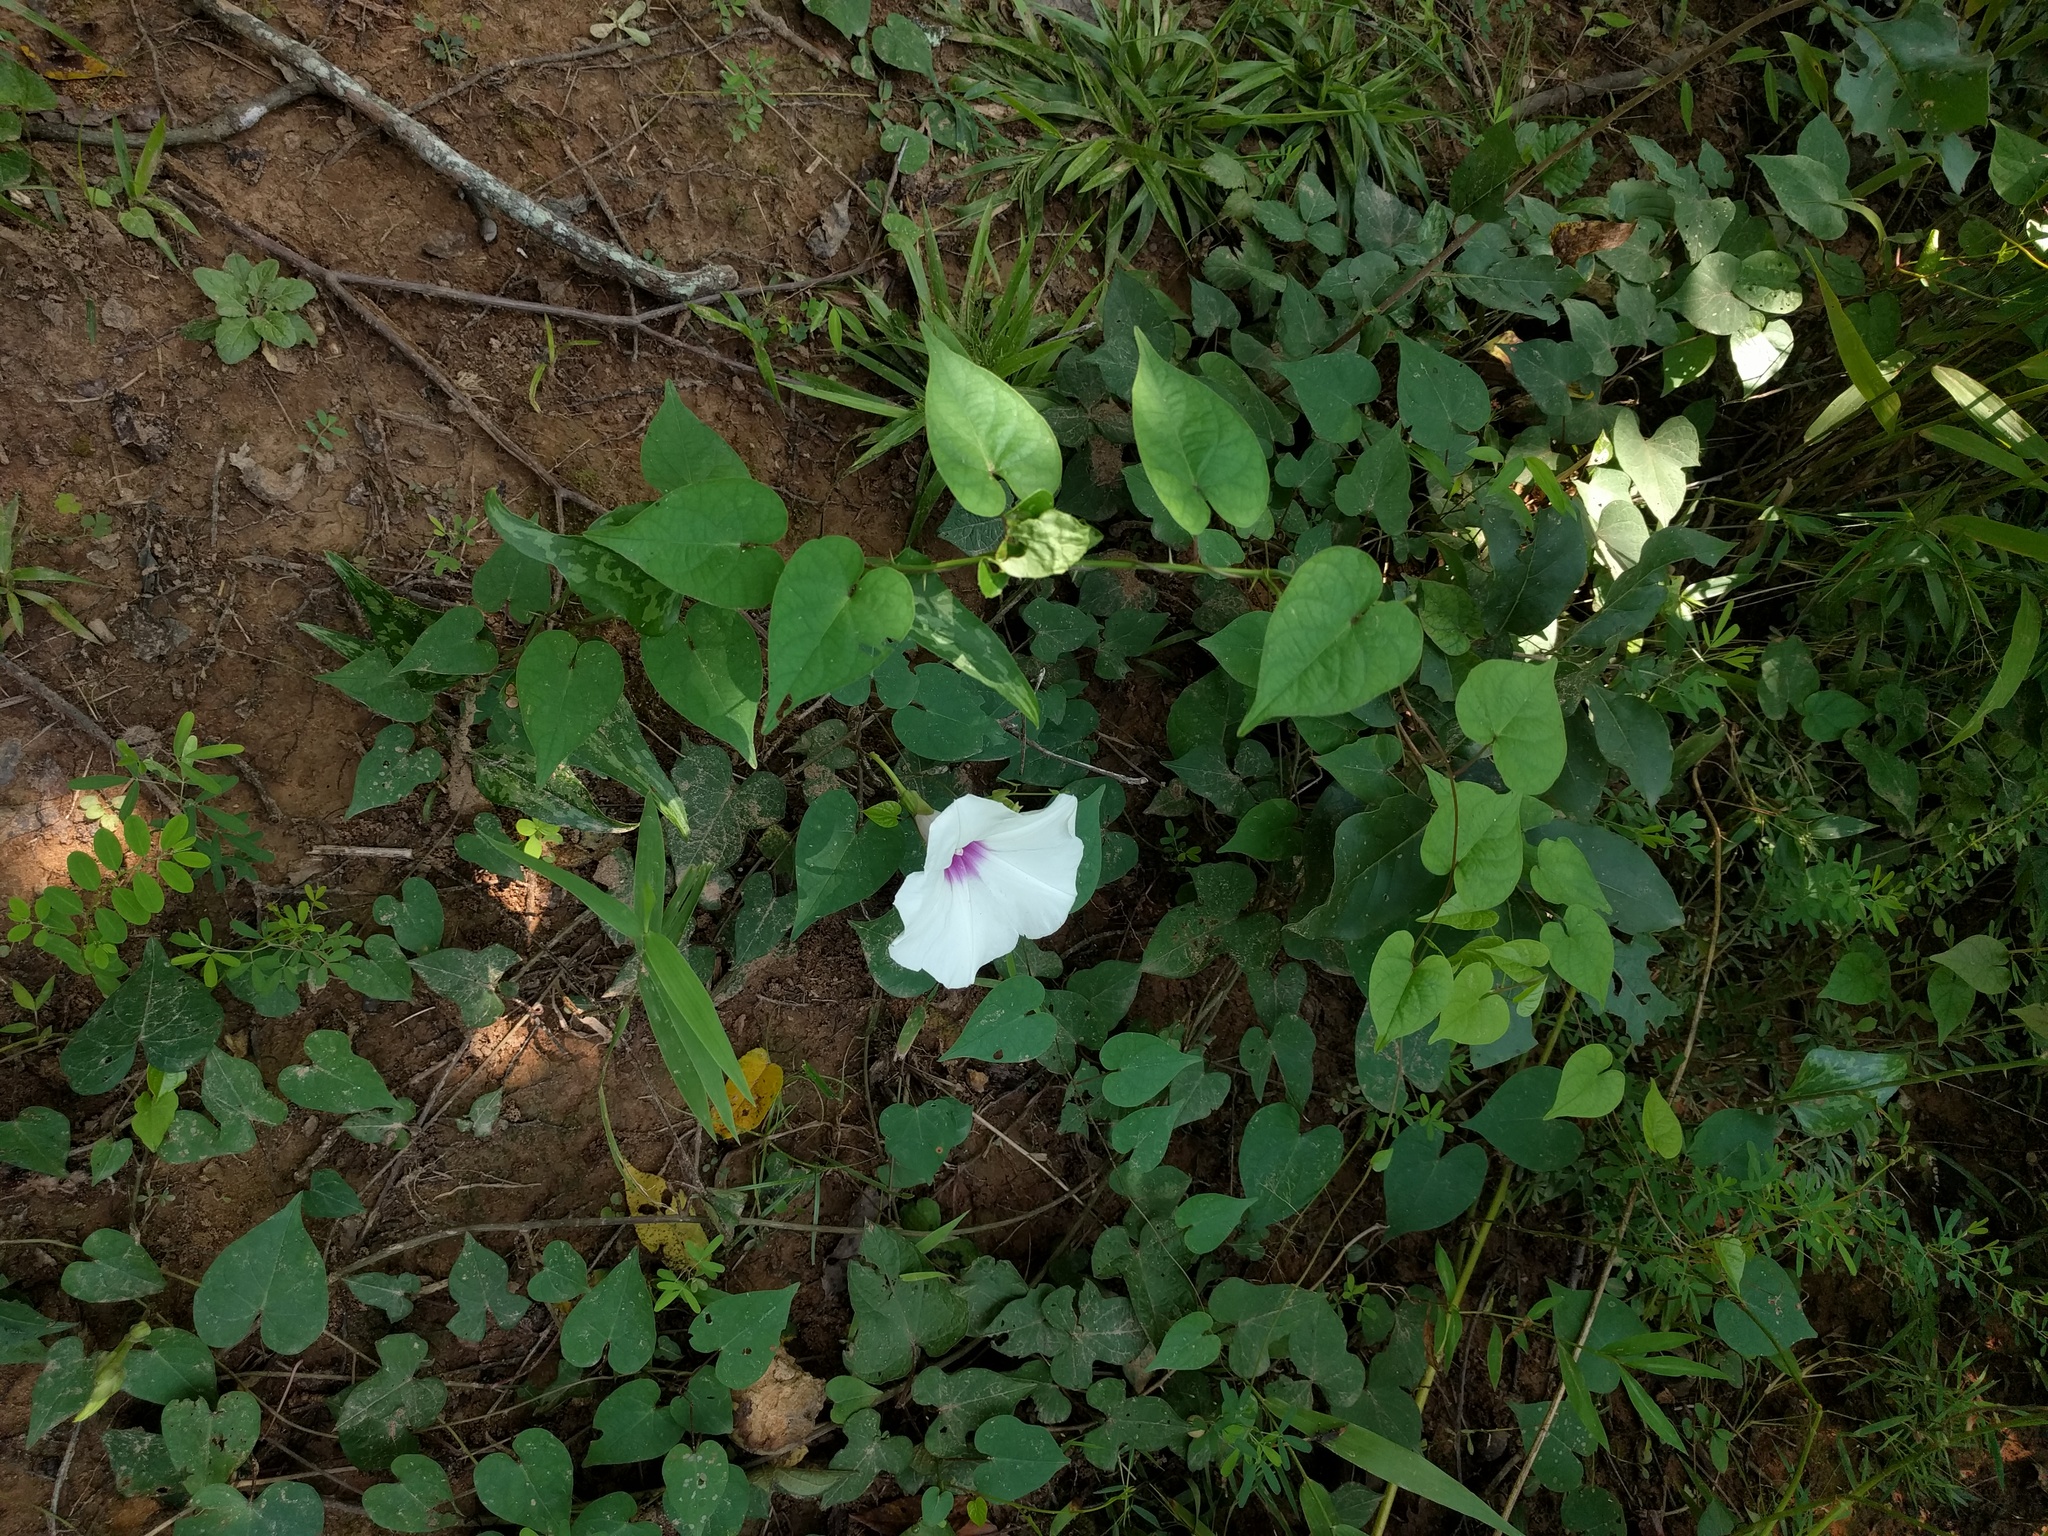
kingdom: Plantae
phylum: Tracheophyta
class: Magnoliopsida
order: Solanales
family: Convolvulaceae
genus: Ipomoea
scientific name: Ipomoea pandurata
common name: Man-of-the-earth
